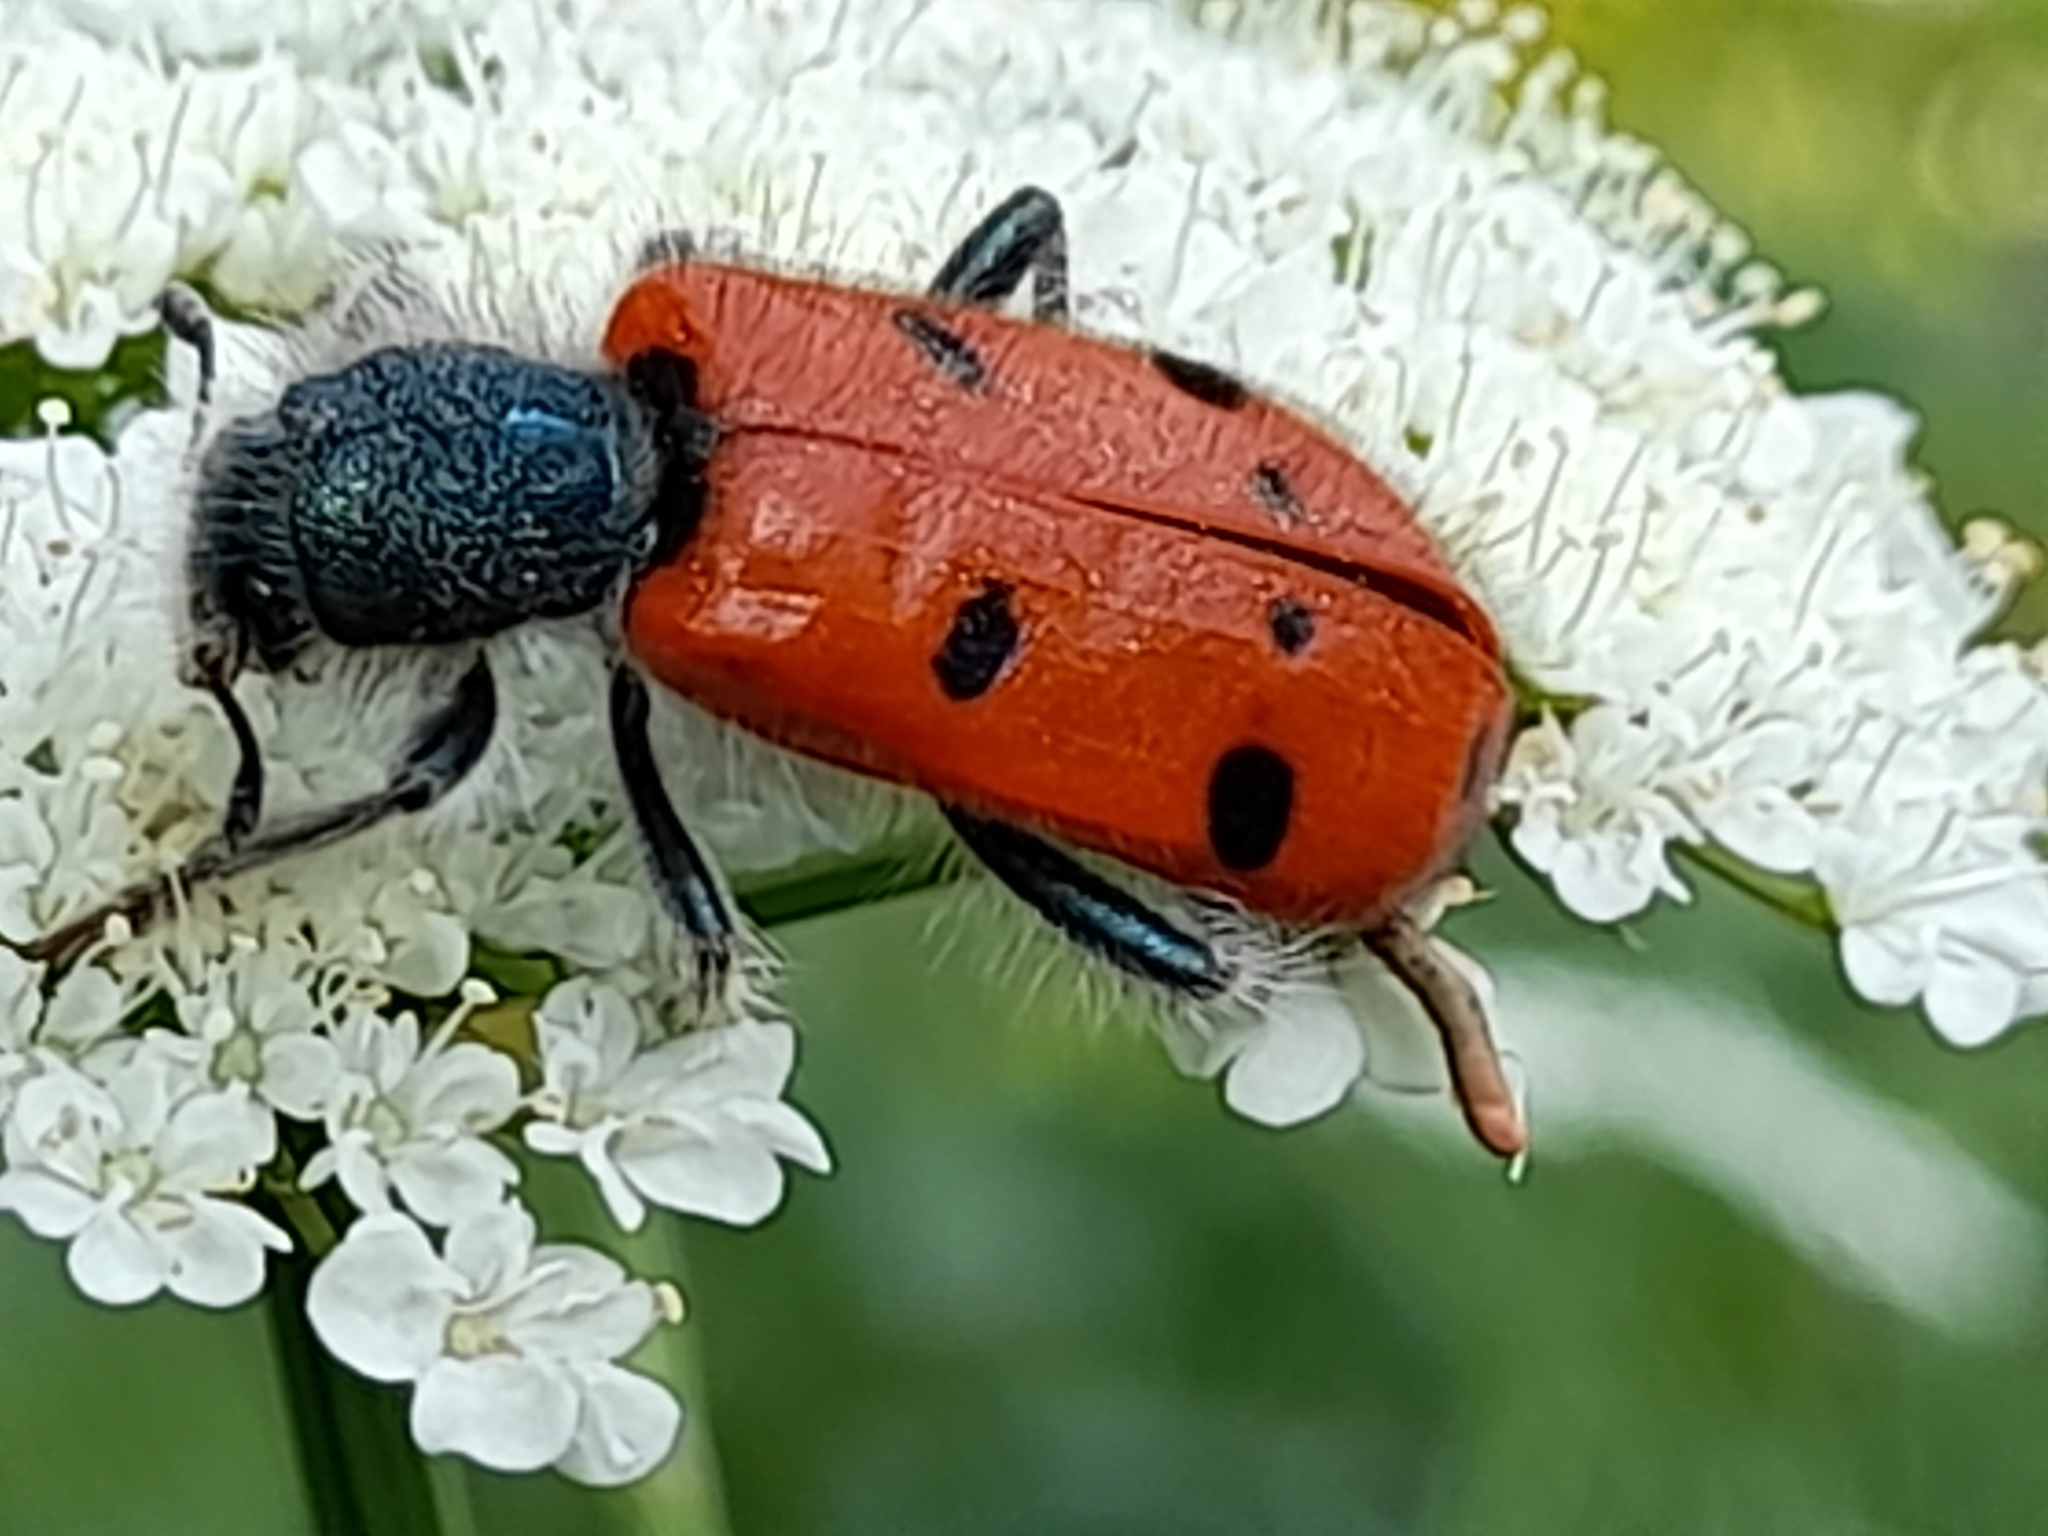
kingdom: Animalia
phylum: Arthropoda
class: Insecta
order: Coleoptera
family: Cleridae
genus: Trichodes
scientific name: Trichodes octopunctatus
